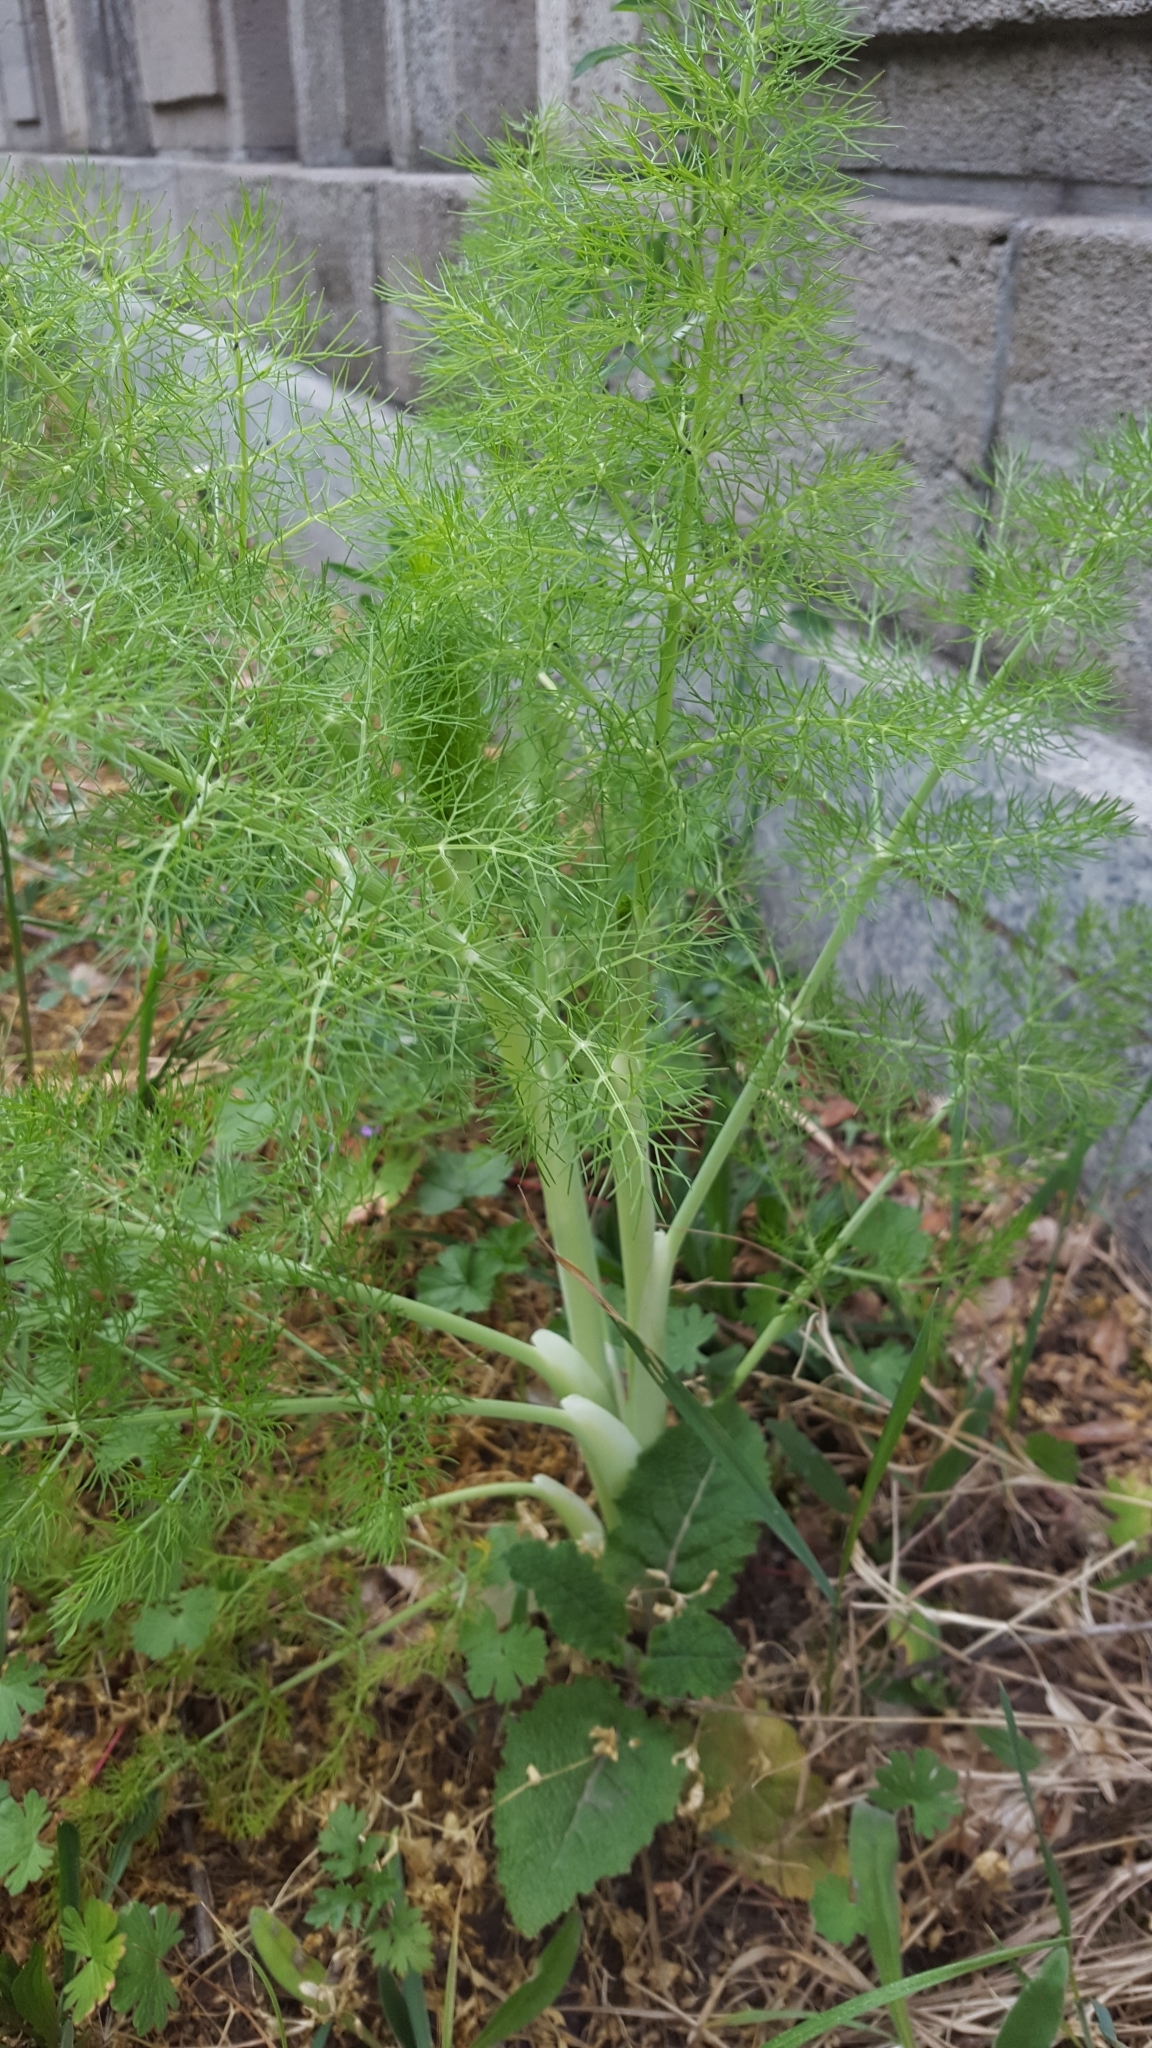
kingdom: Plantae
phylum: Tracheophyta
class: Magnoliopsida
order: Apiales
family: Apiaceae
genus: Foeniculum
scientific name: Foeniculum vulgare
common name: Fennel
